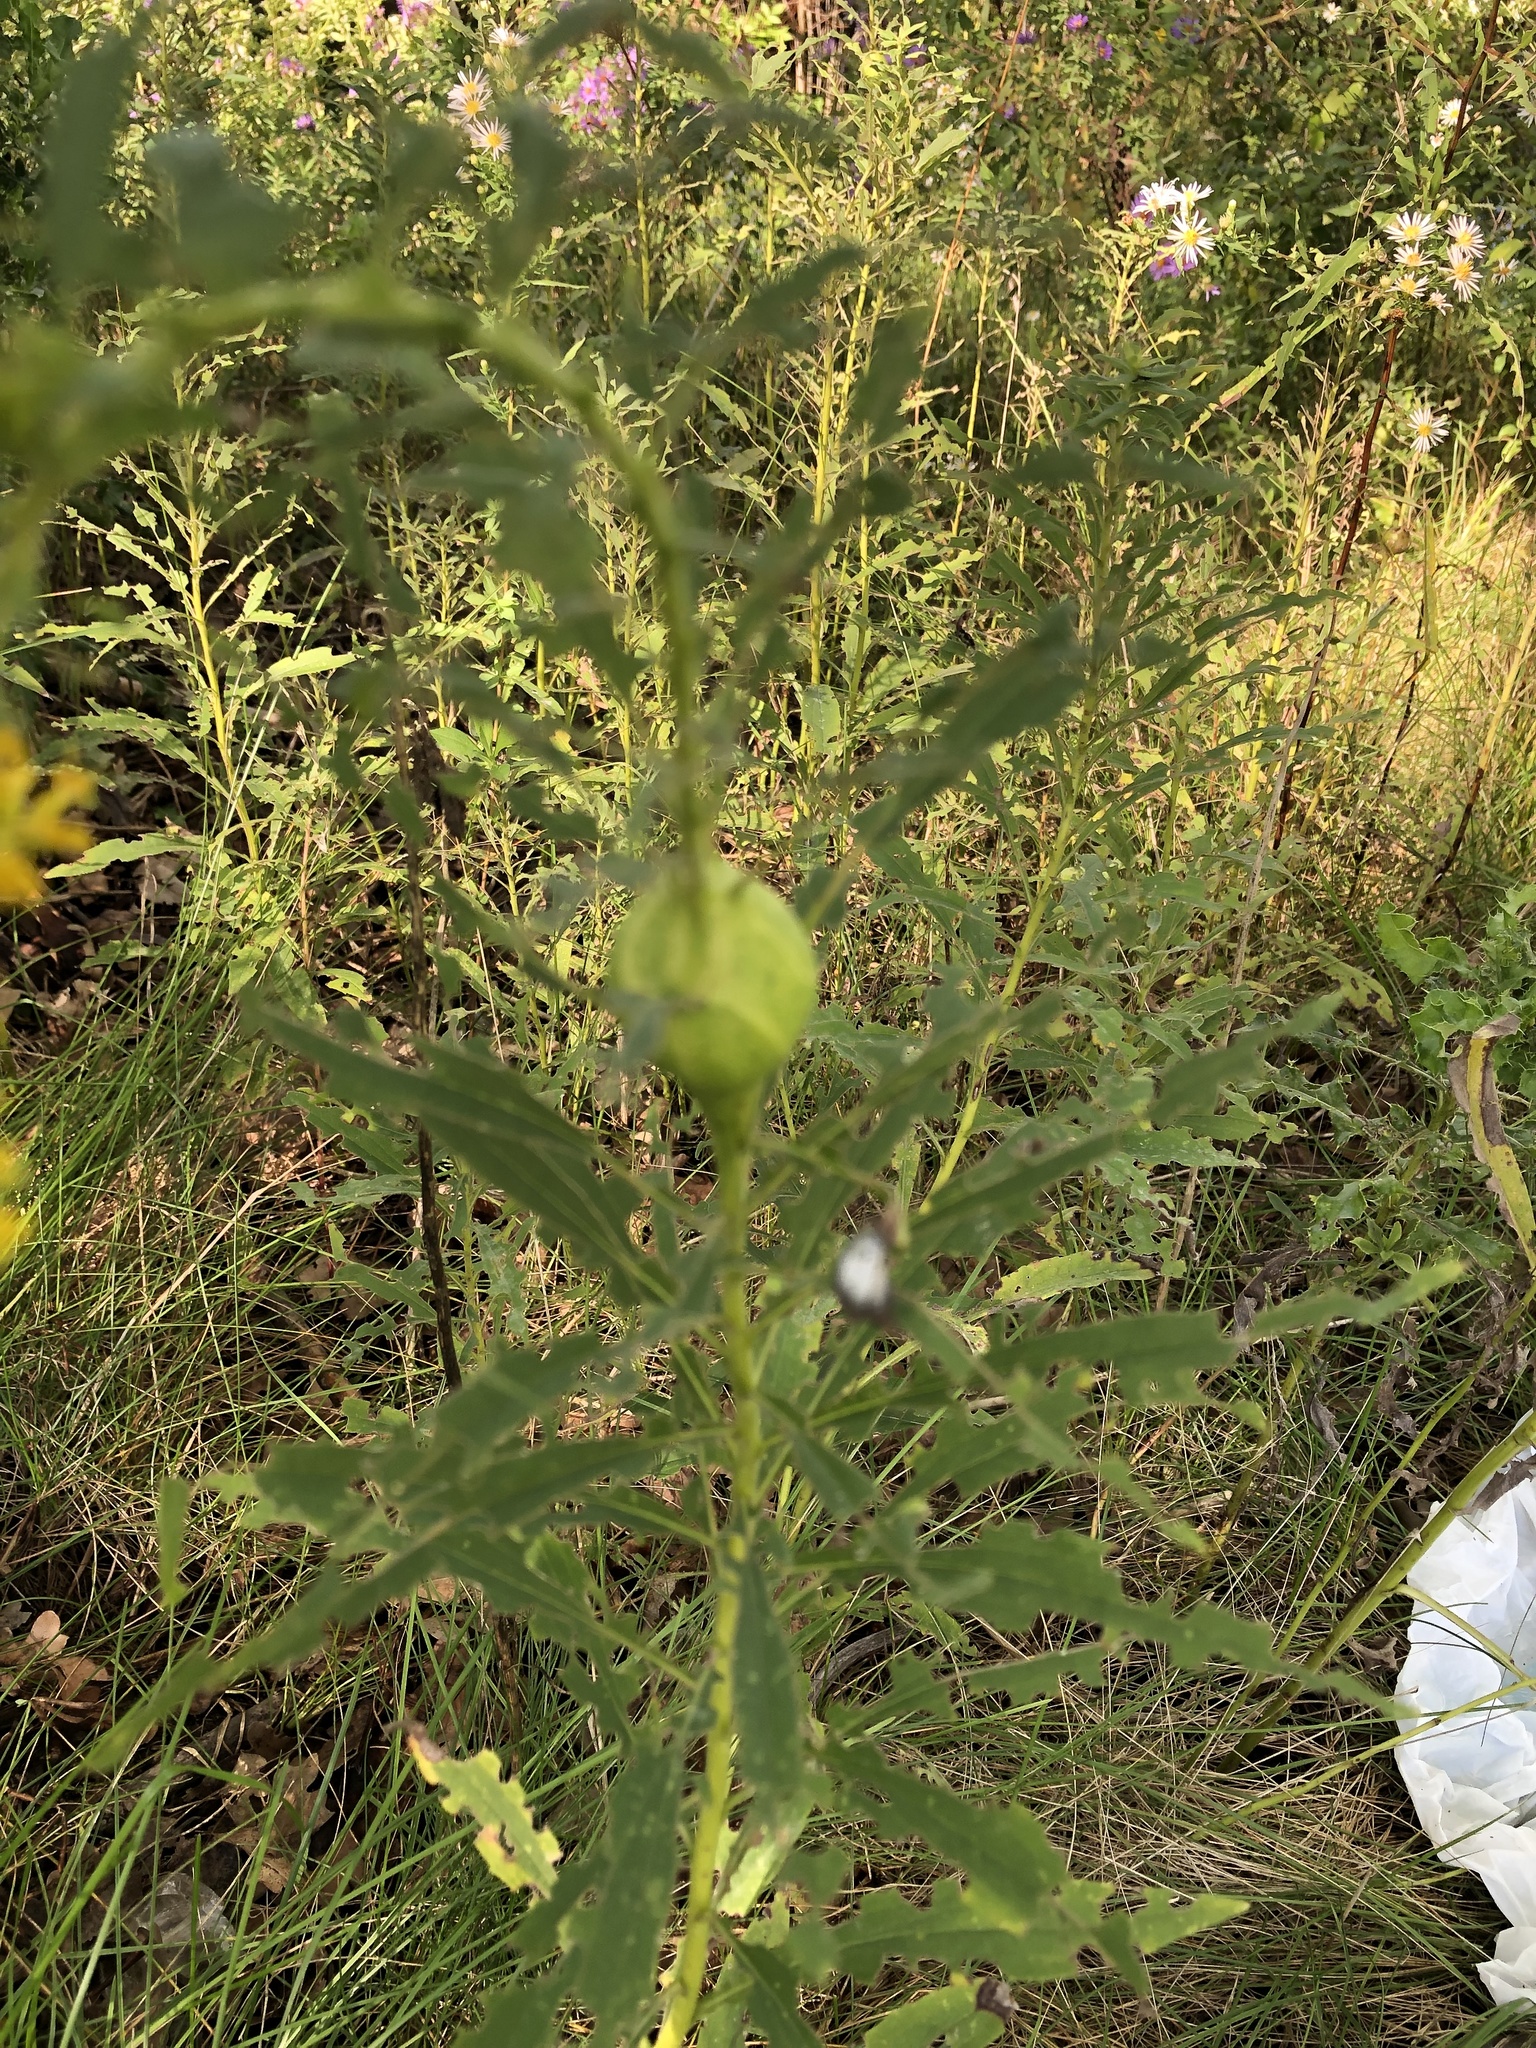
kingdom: Animalia
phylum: Arthropoda
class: Insecta
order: Diptera
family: Tephritidae
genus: Eurosta
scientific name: Eurosta solidaginis
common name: Goldenrod gall fly
